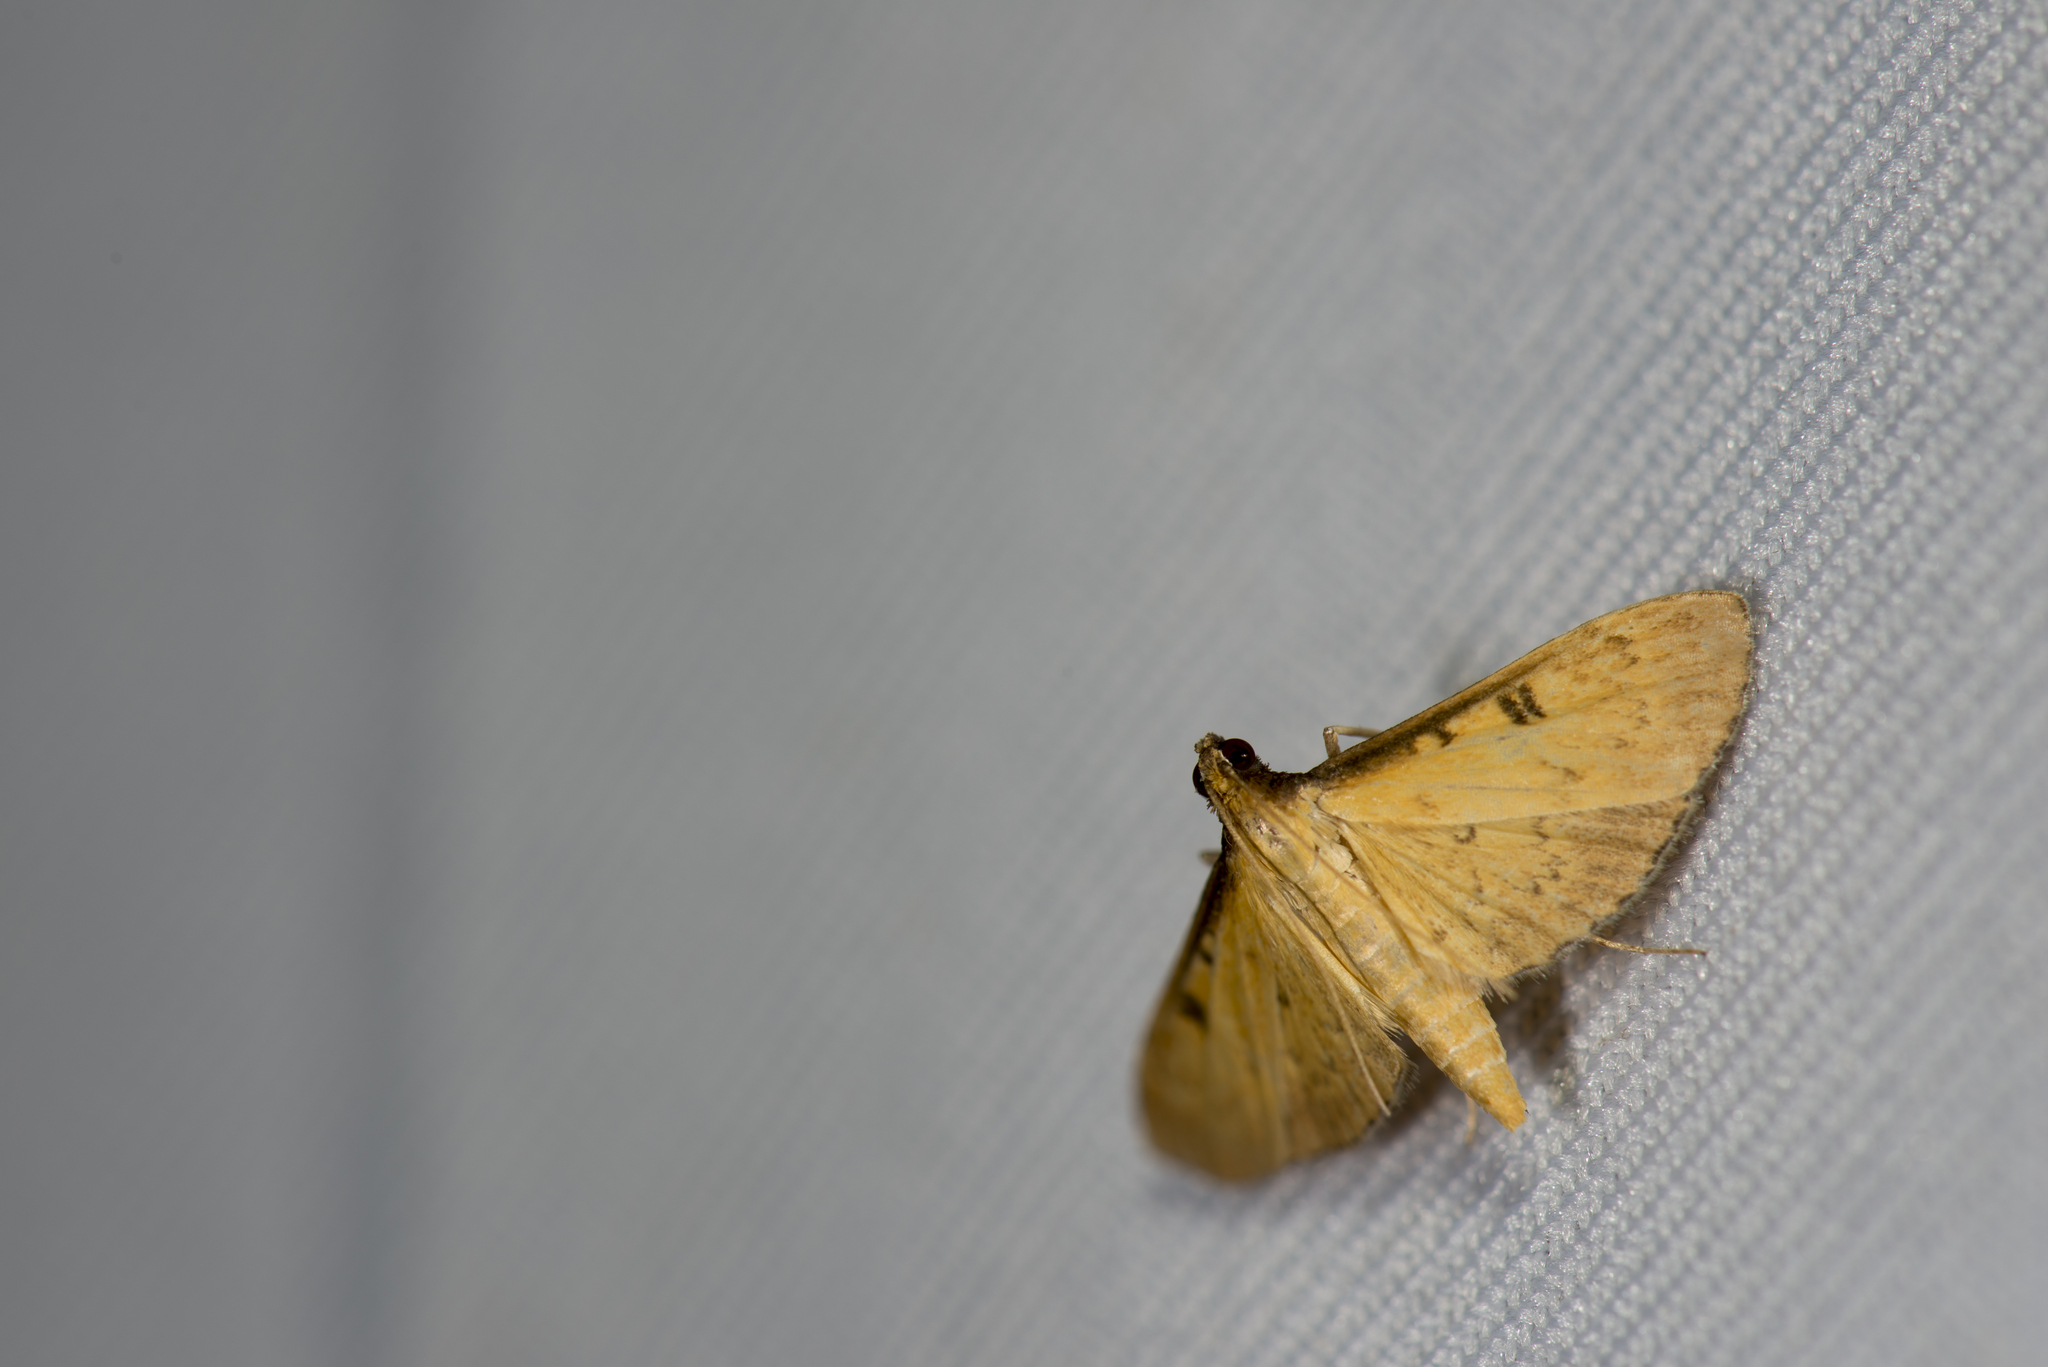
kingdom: Animalia
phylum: Arthropoda
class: Insecta
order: Lepidoptera
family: Crambidae
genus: Tatobotys
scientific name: Tatobotys depalpalis
